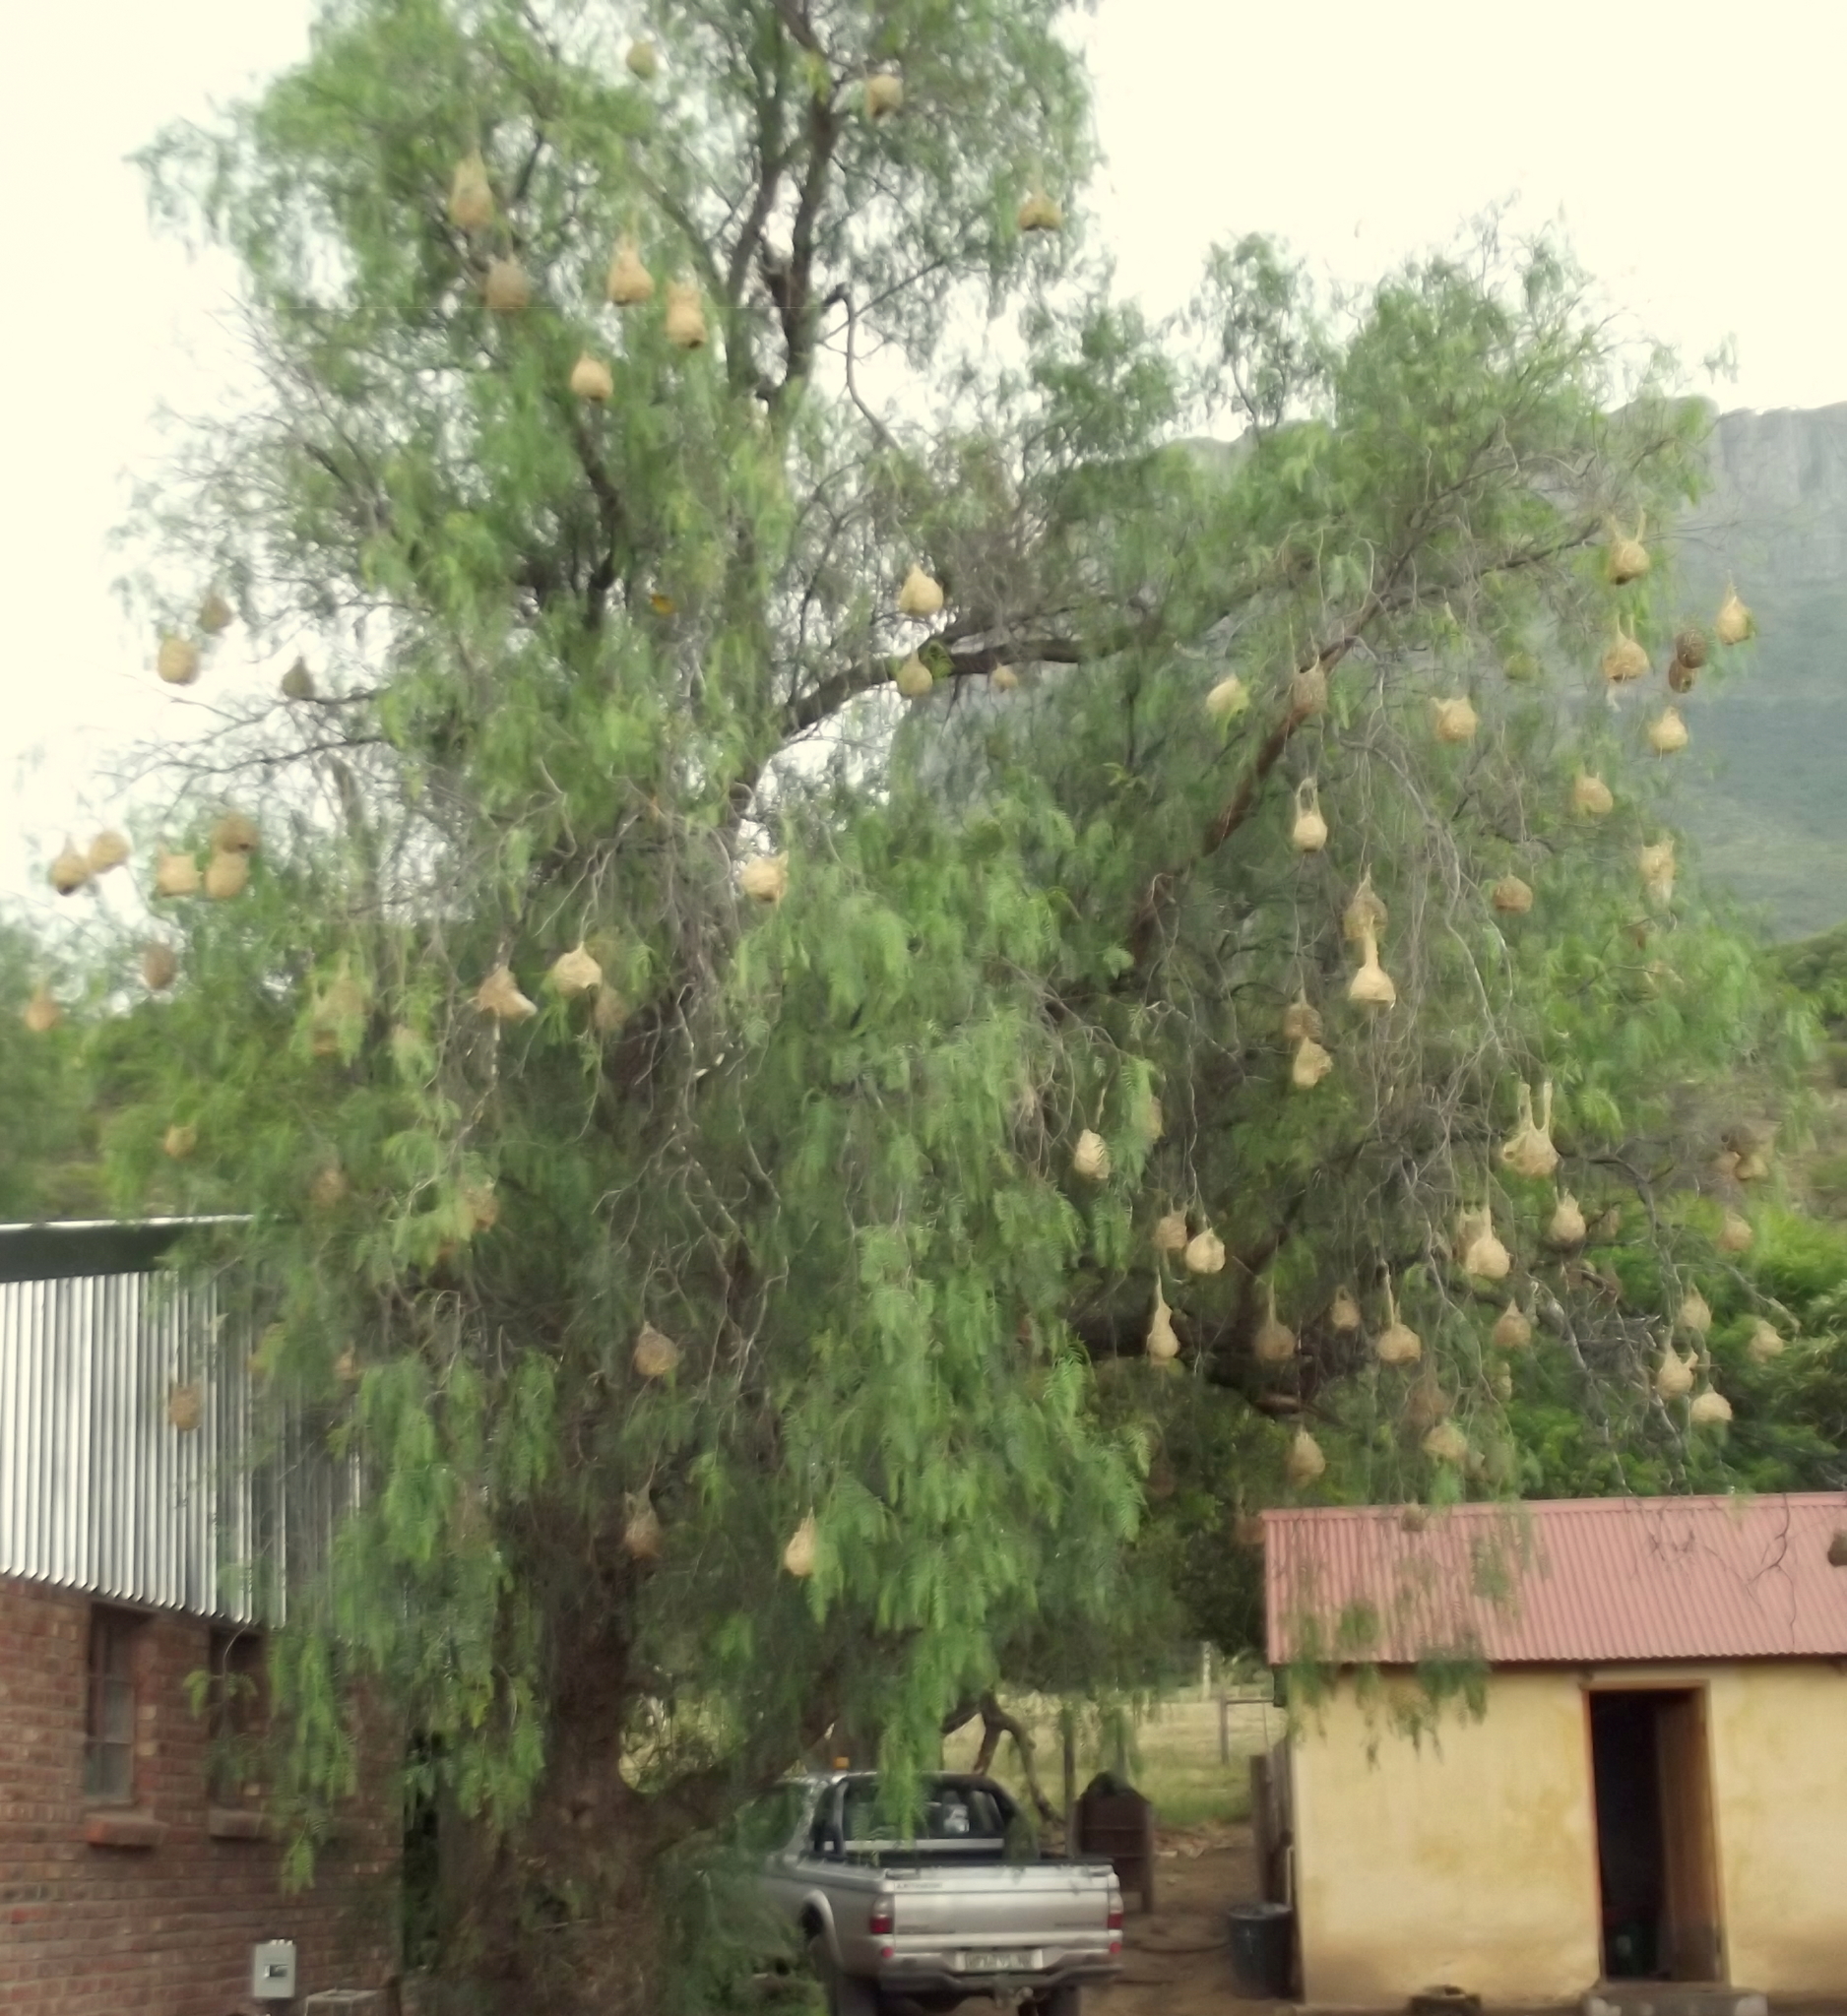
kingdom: Animalia
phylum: Chordata
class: Aves
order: Passeriformes
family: Ploceidae
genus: Ploceus
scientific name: Ploceus velatus
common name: Southern masked weaver
